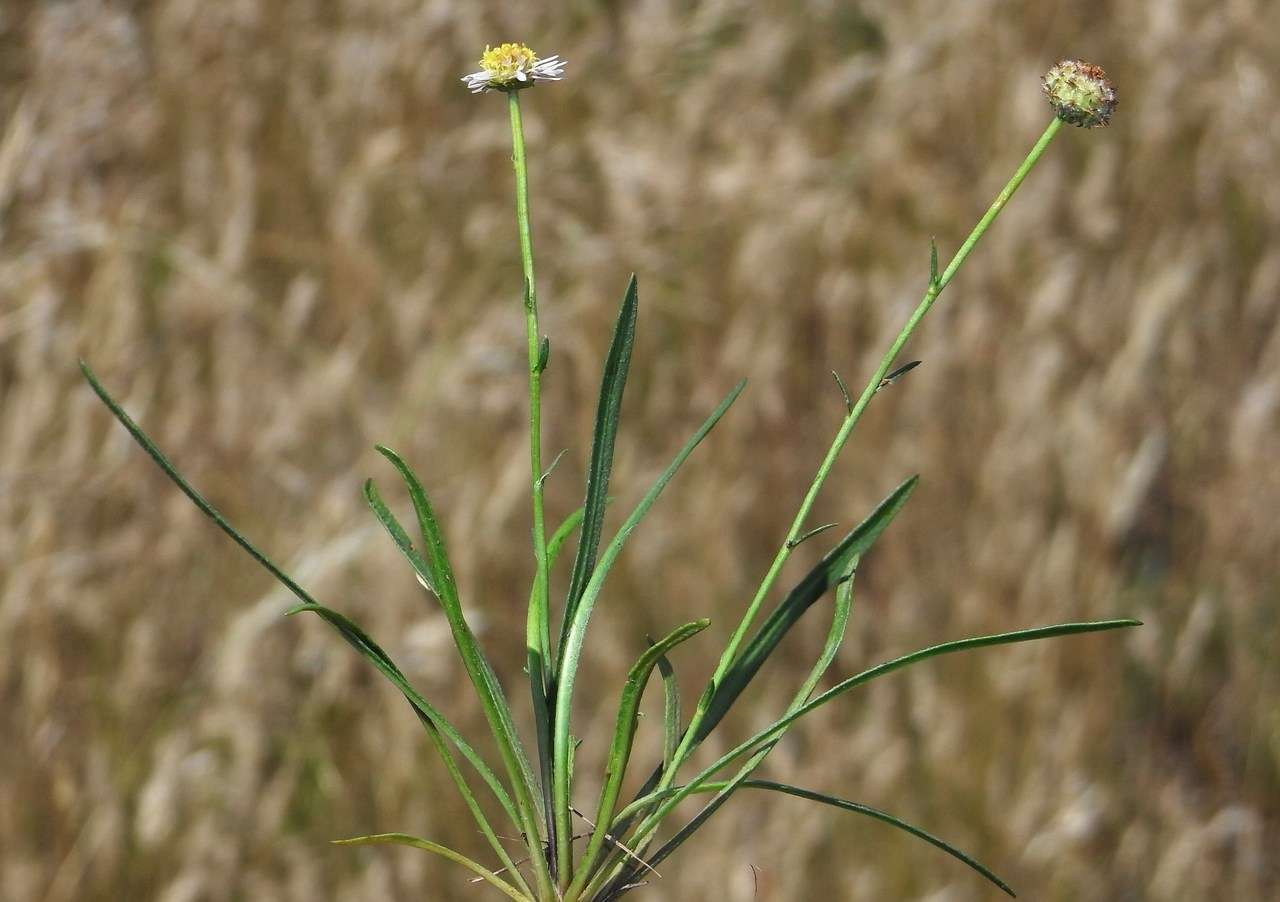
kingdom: Plantae
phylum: Tracheophyta
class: Magnoliopsida
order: Asterales
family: Asteraceae
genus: Calotis
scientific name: Calotis scapigera
